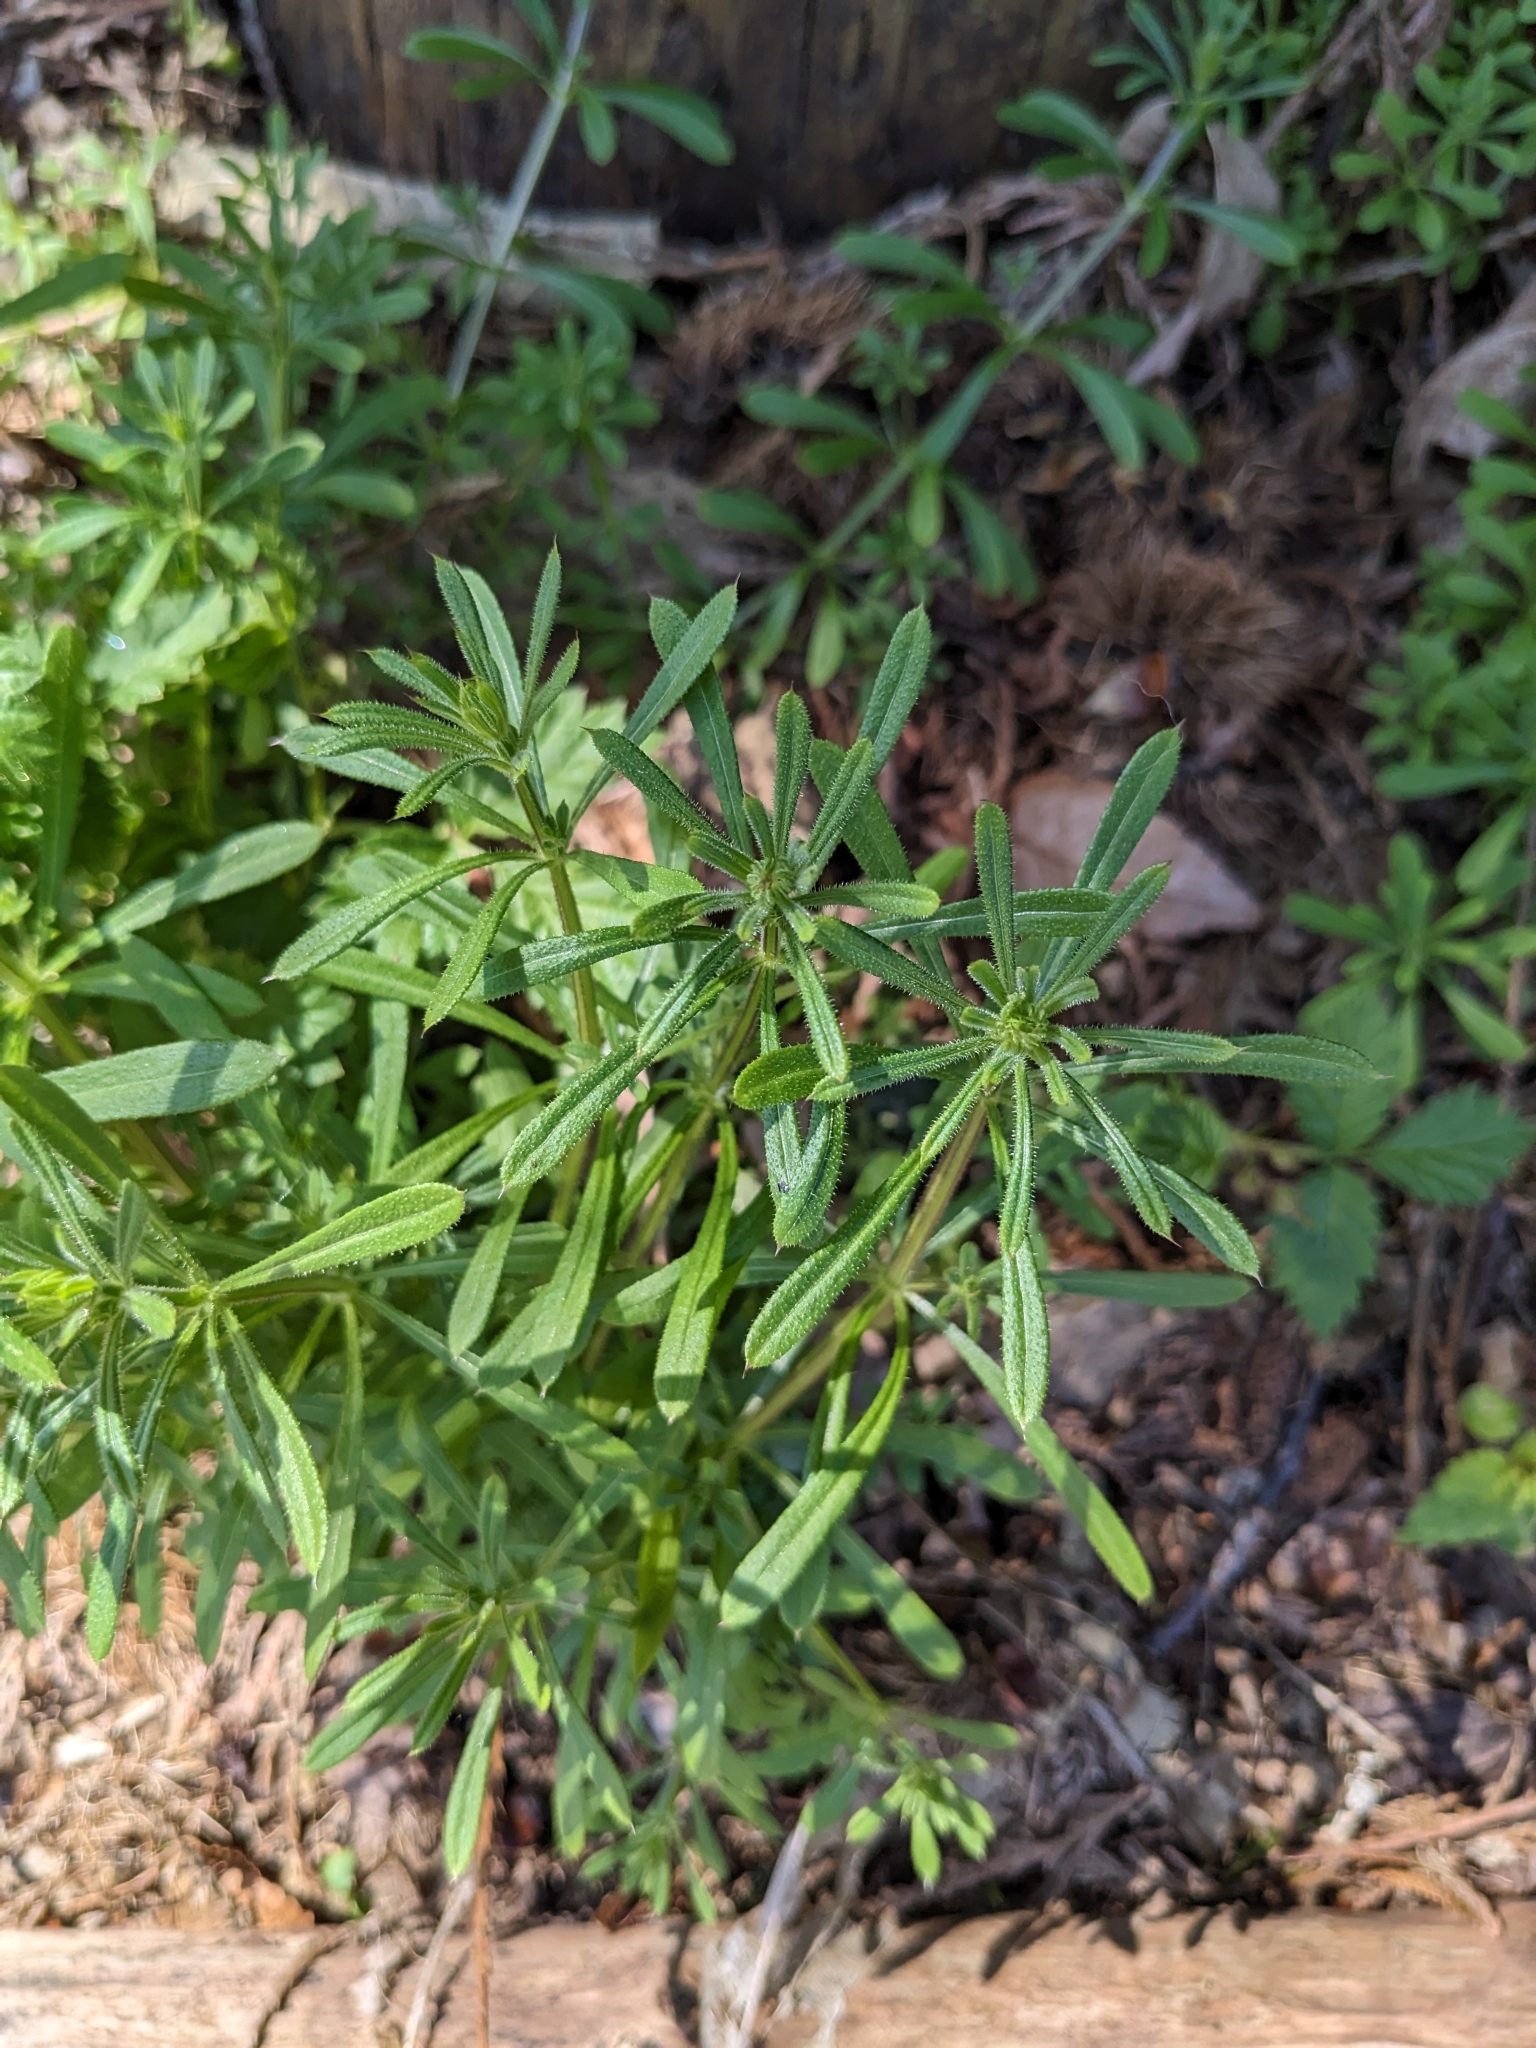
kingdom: Plantae
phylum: Tracheophyta
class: Magnoliopsida
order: Gentianales
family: Rubiaceae
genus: Galium
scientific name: Galium aparine
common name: Cleavers
